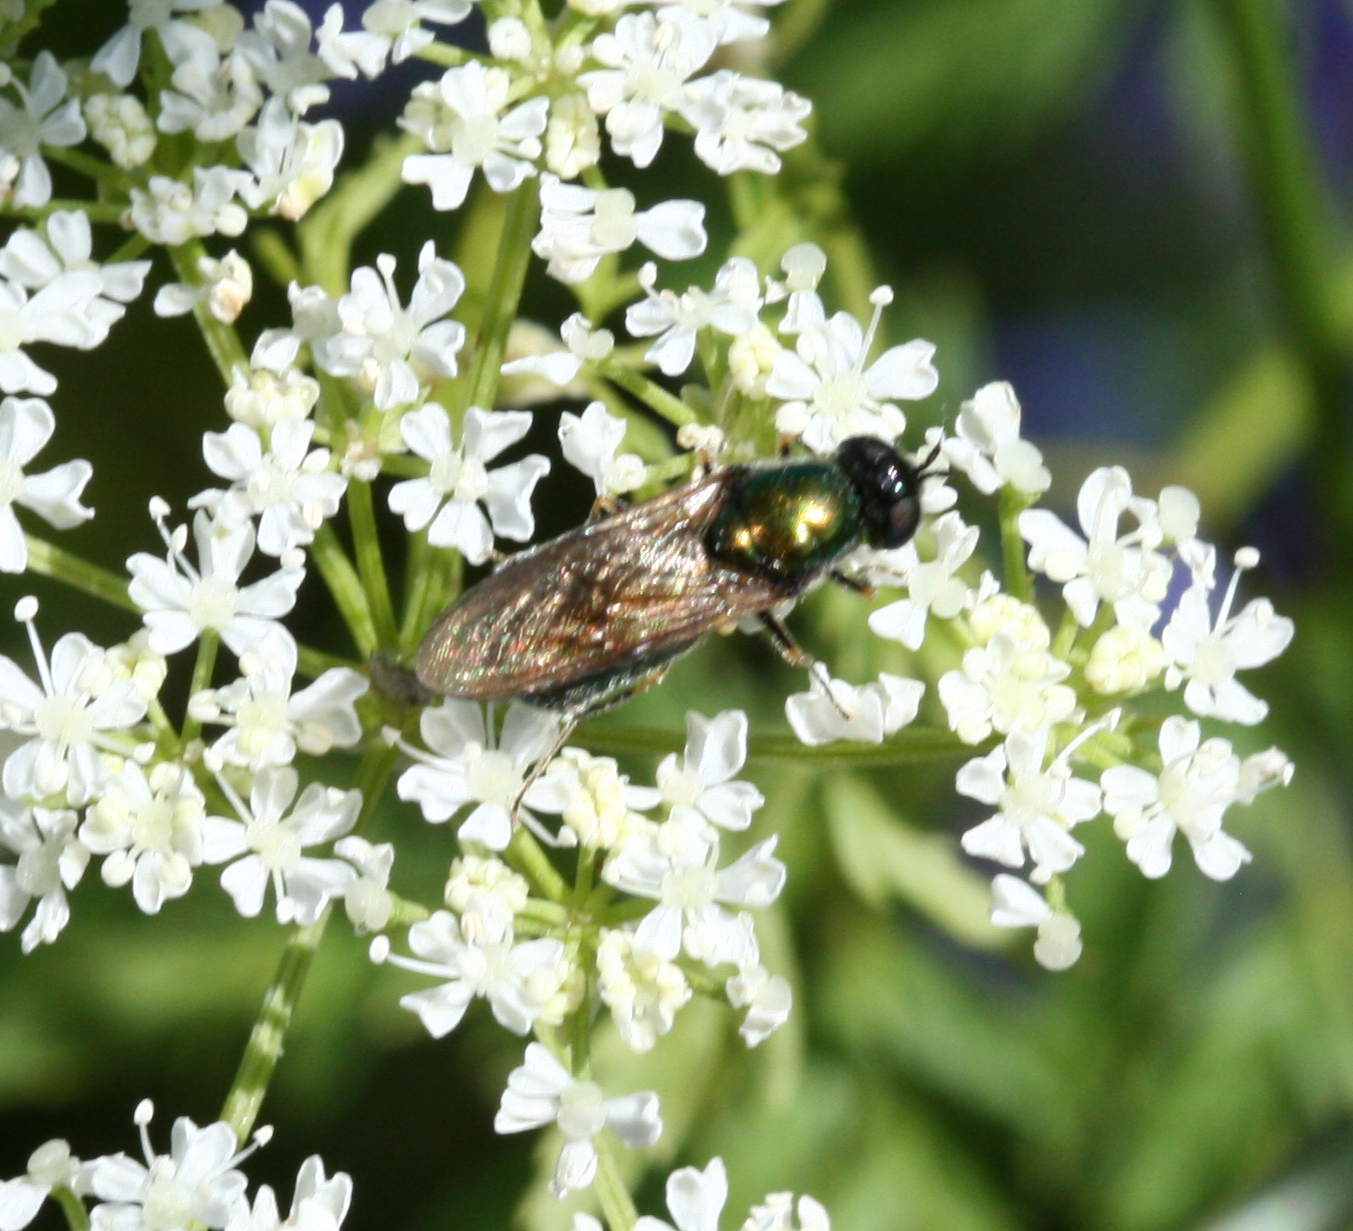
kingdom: Animalia
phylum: Arthropoda
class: Insecta
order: Diptera
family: Stratiomyidae
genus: Chloromyia
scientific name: Chloromyia formosa
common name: Soldier fly
